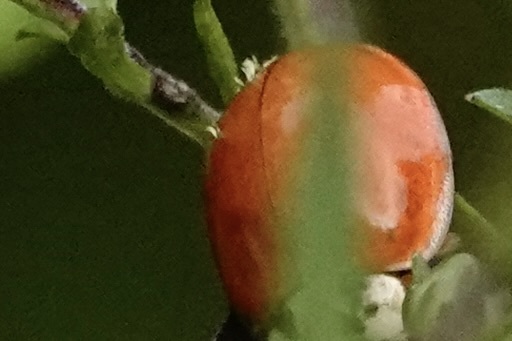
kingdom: Fungi
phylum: Ascomycota
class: Laboulbeniomycetes
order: Laboulbeniales
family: Laboulbeniaceae
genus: Hesperomyces
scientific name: Hesperomyces harmoniae
